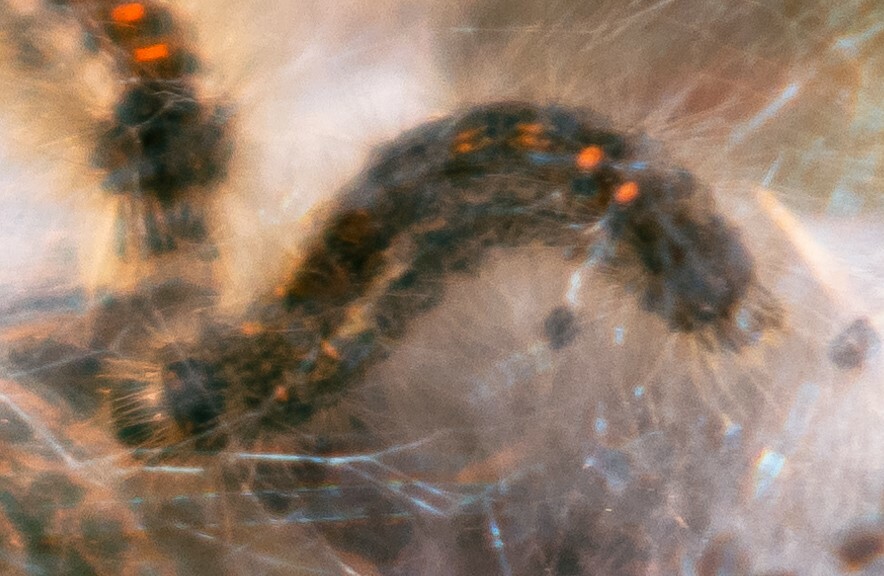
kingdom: Animalia
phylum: Arthropoda
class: Insecta
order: Lepidoptera
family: Erebidae
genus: Euproctis
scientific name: Euproctis chrysorrhoea
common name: Brown-tail
